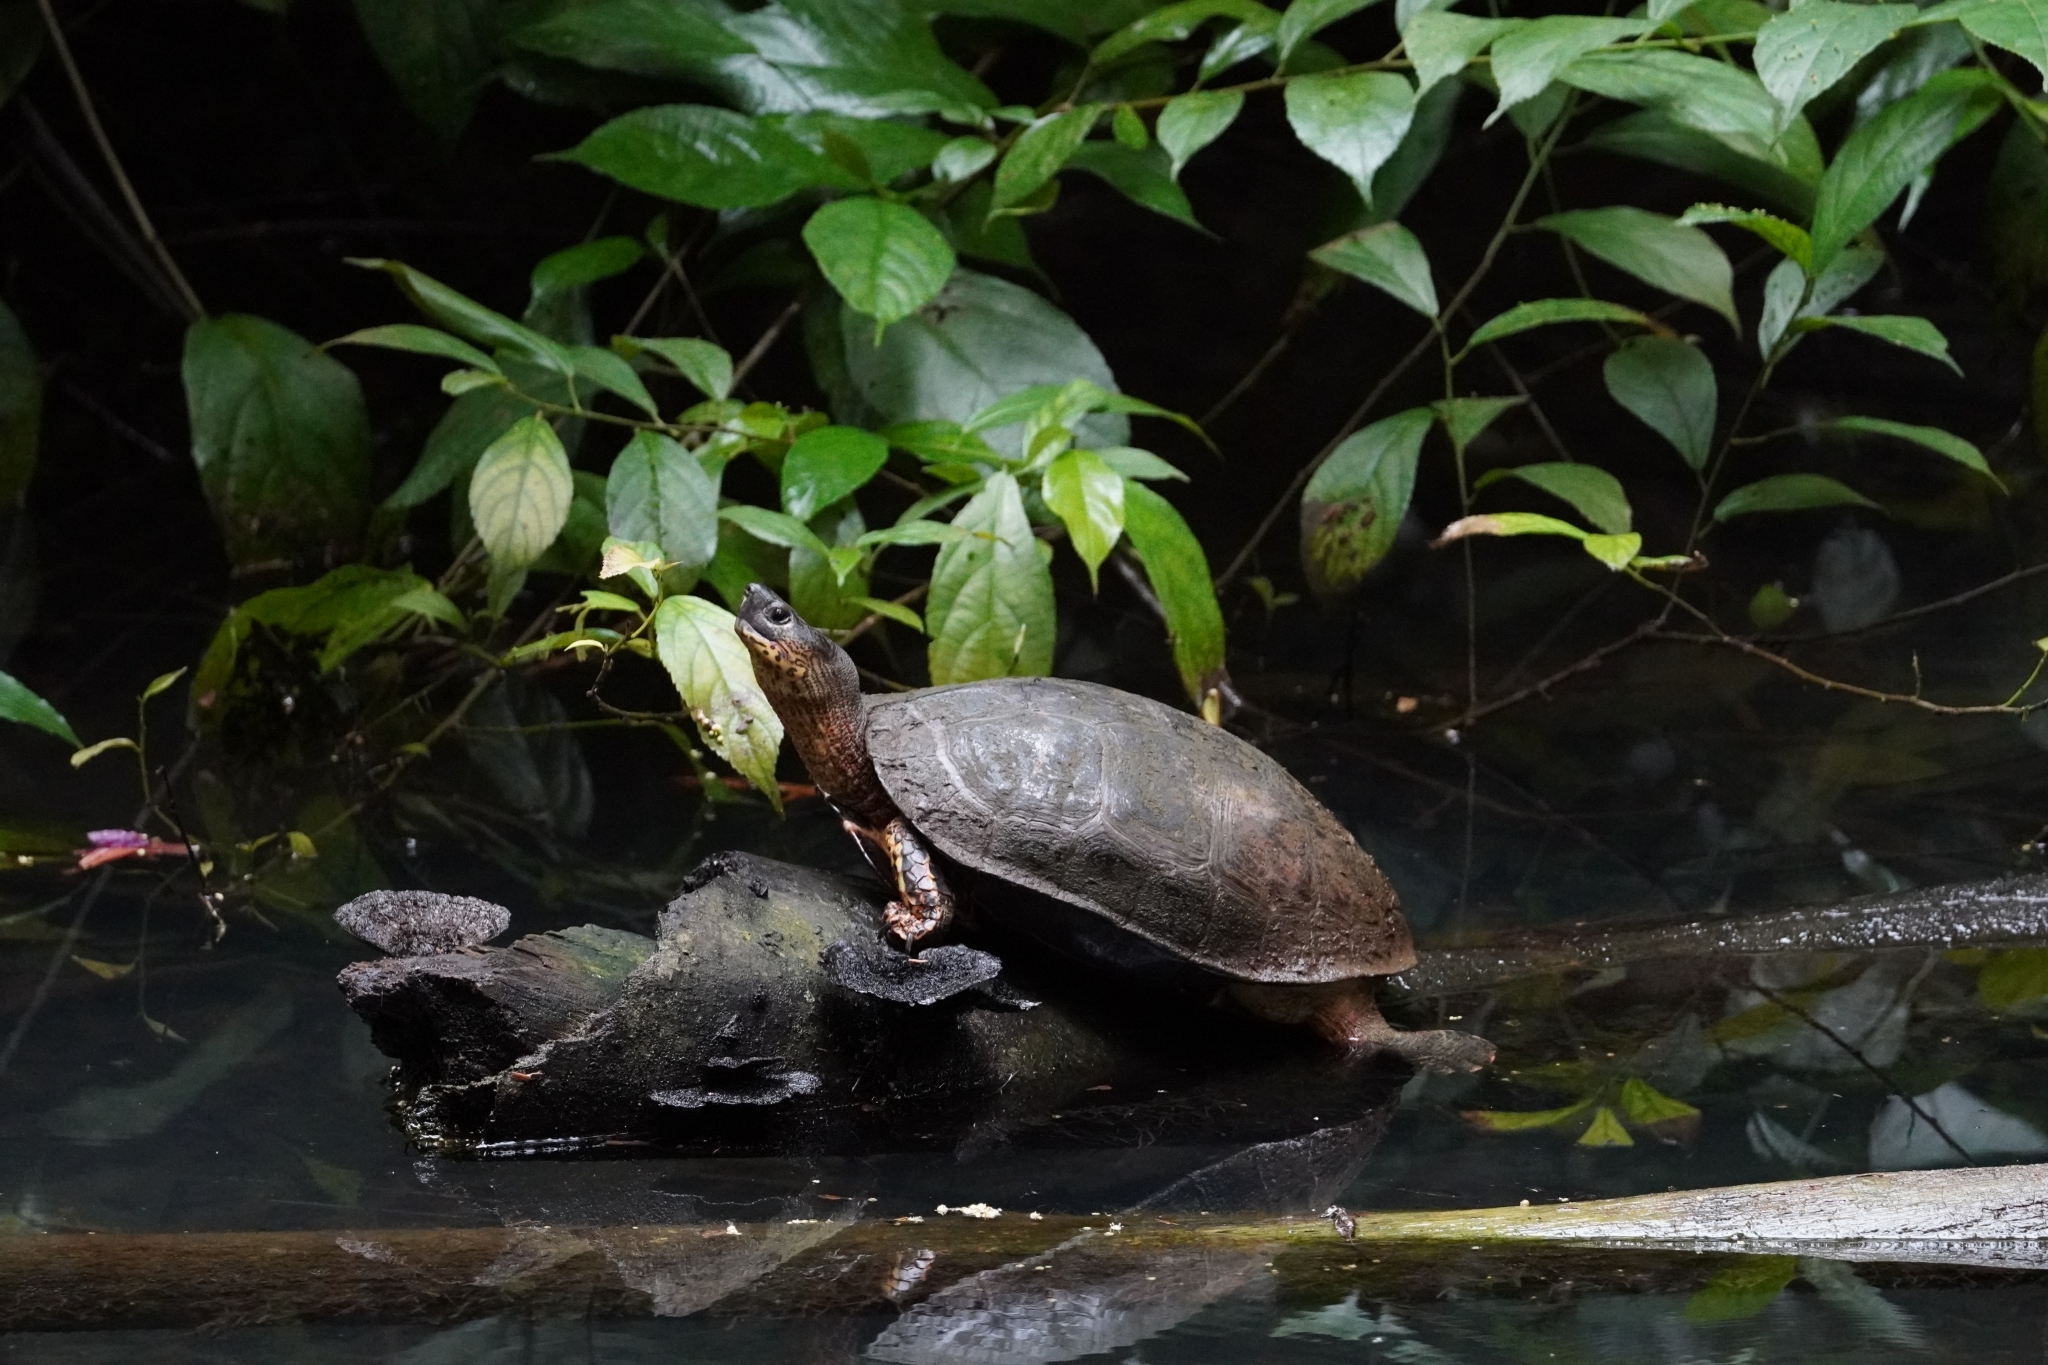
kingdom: Animalia
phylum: Chordata
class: Testudines
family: Geoemydidae
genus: Rhinoclemmys
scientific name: Rhinoclemmys funerea
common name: Black wood turtle
